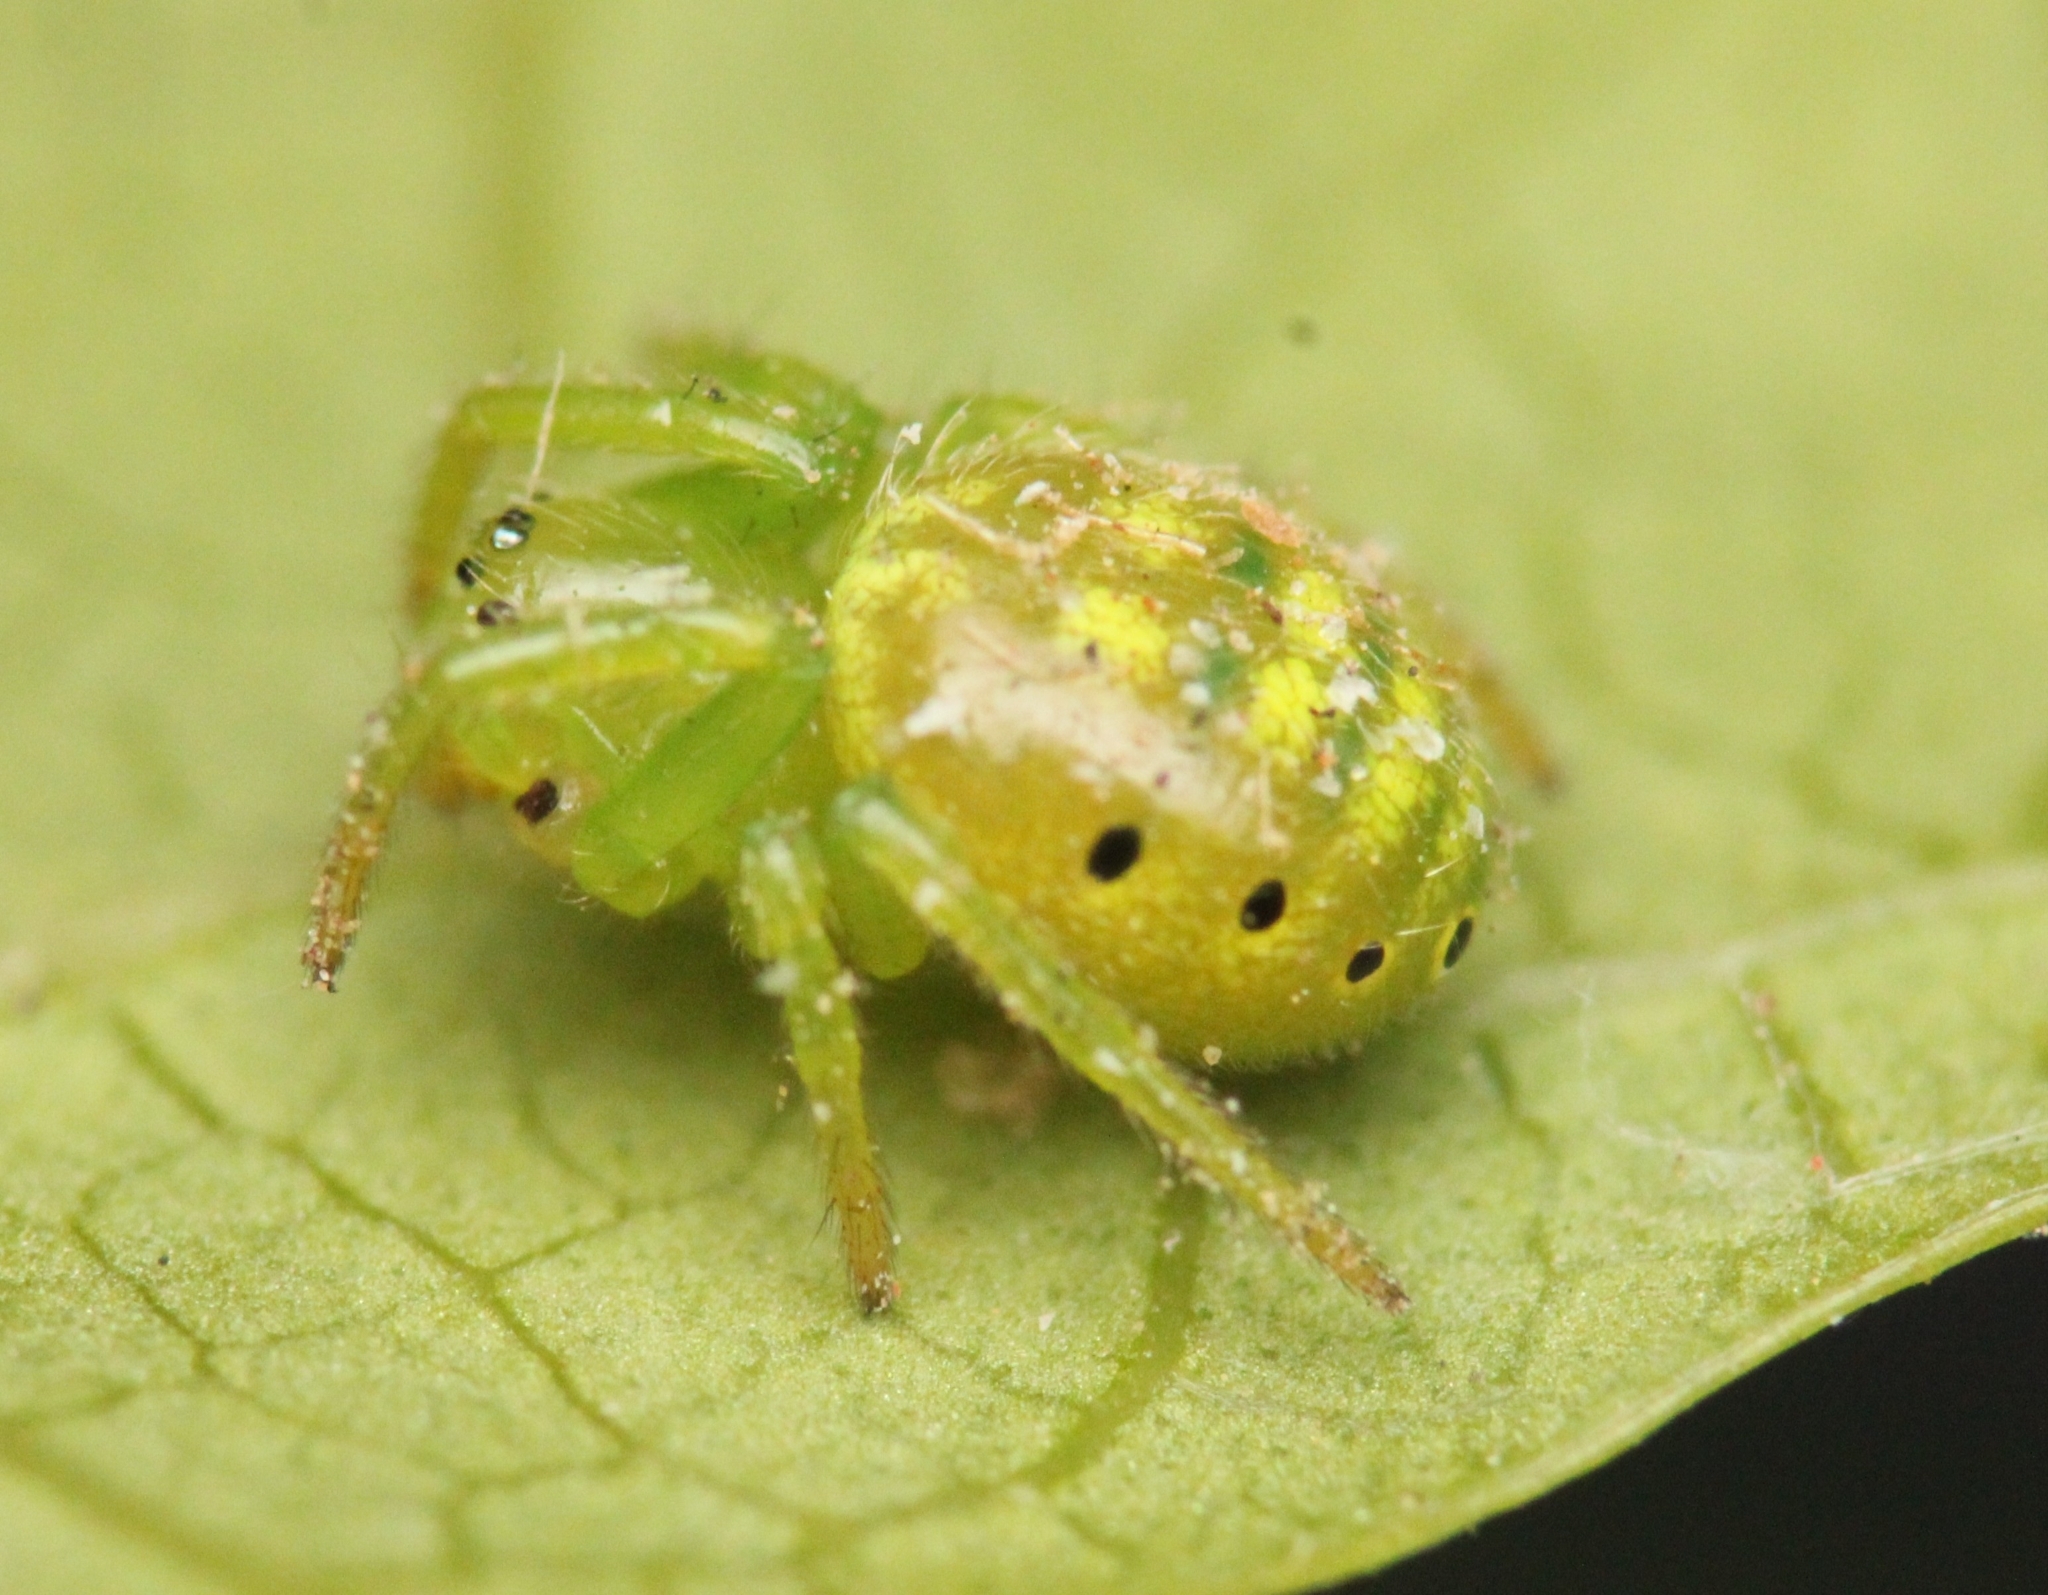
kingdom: Animalia
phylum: Arthropoda
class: Arachnida
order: Araneae
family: Araneidae
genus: Prasonica
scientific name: Prasonica seriata
